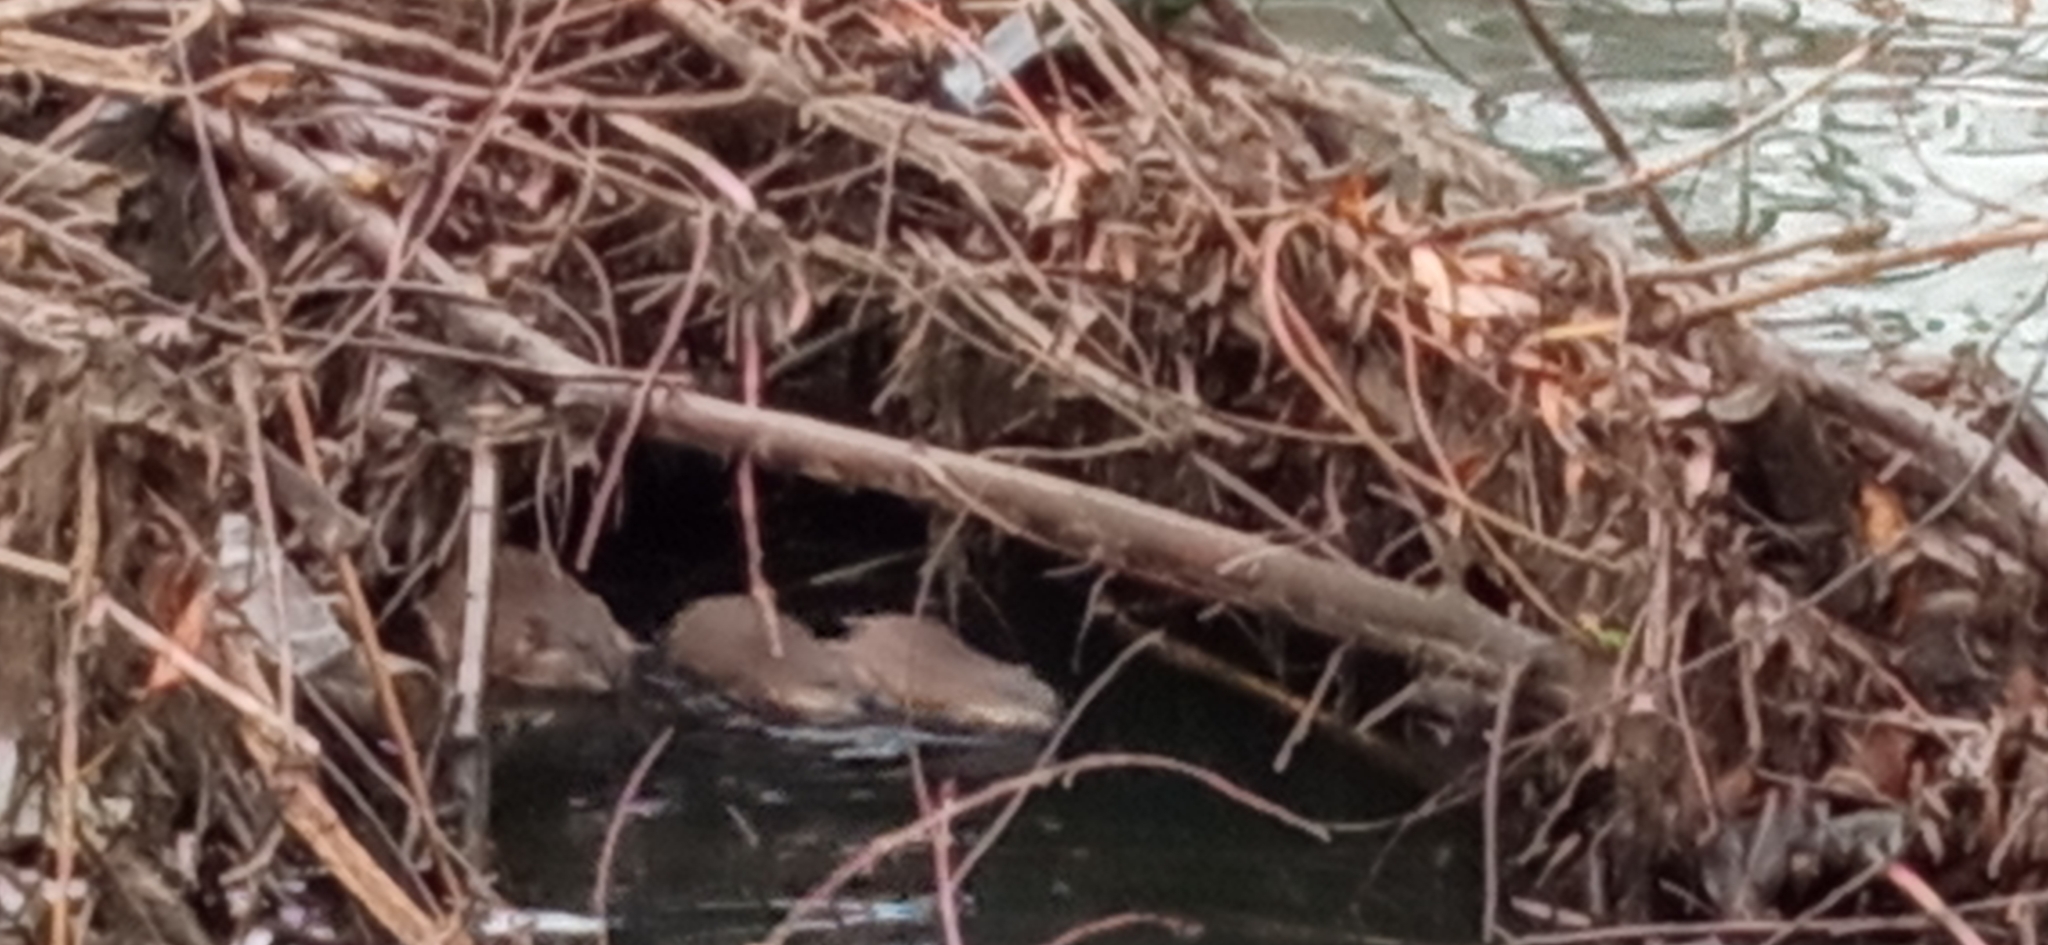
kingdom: Animalia
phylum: Chordata
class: Mammalia
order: Rodentia
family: Cricetidae
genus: Ondatra
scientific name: Ondatra zibethicus
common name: Muskrat
